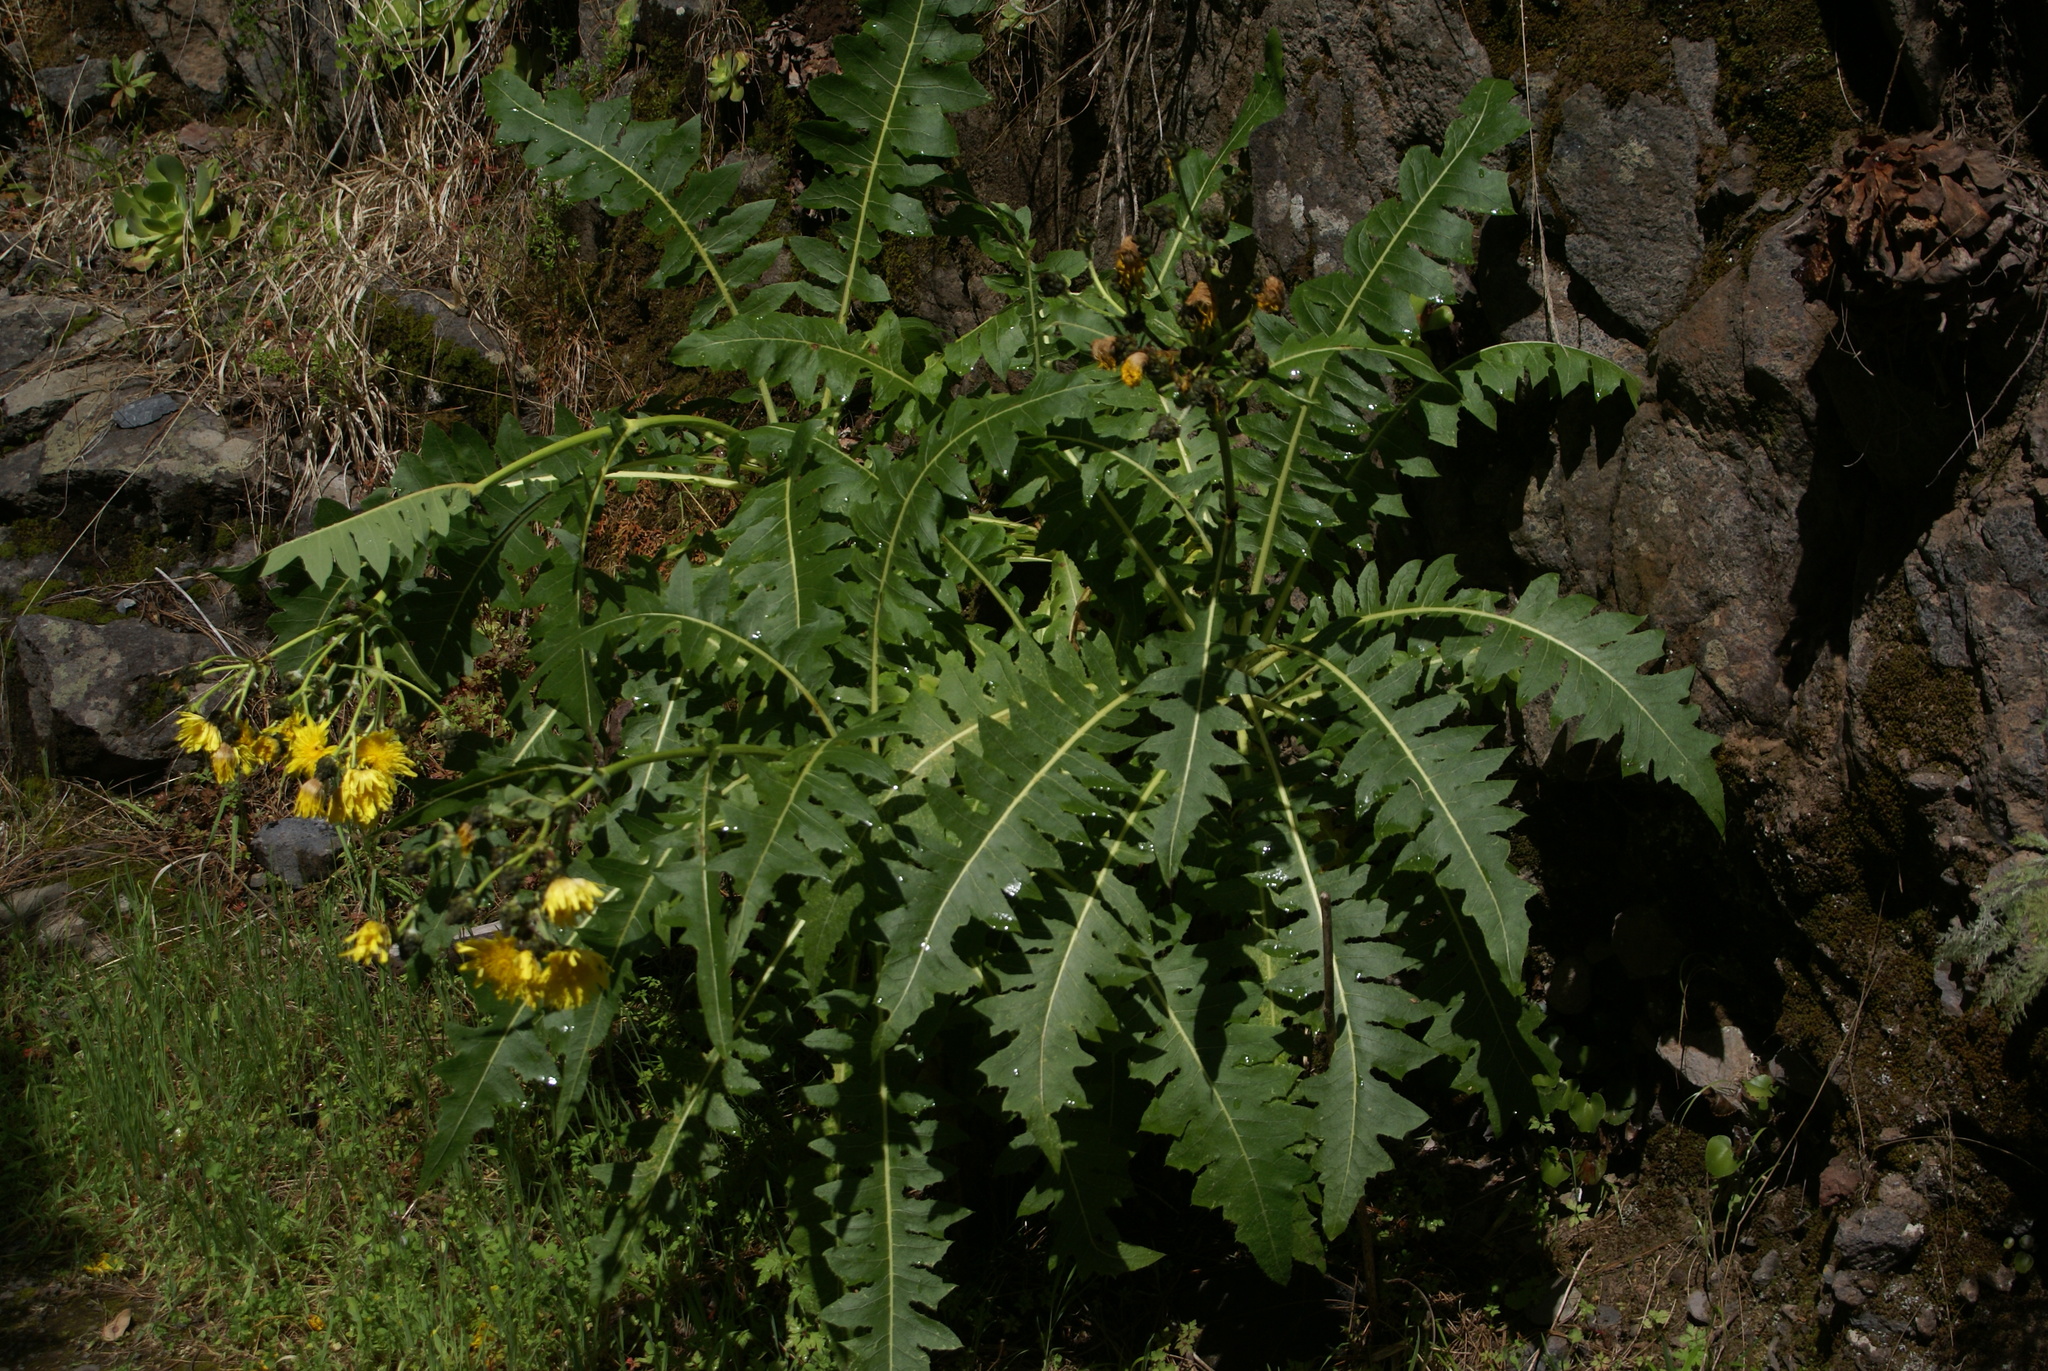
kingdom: Plantae
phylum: Tracheophyta
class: Magnoliopsida
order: Asterales
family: Asteraceae
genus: Sonchus
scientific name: Sonchus hierrensis
